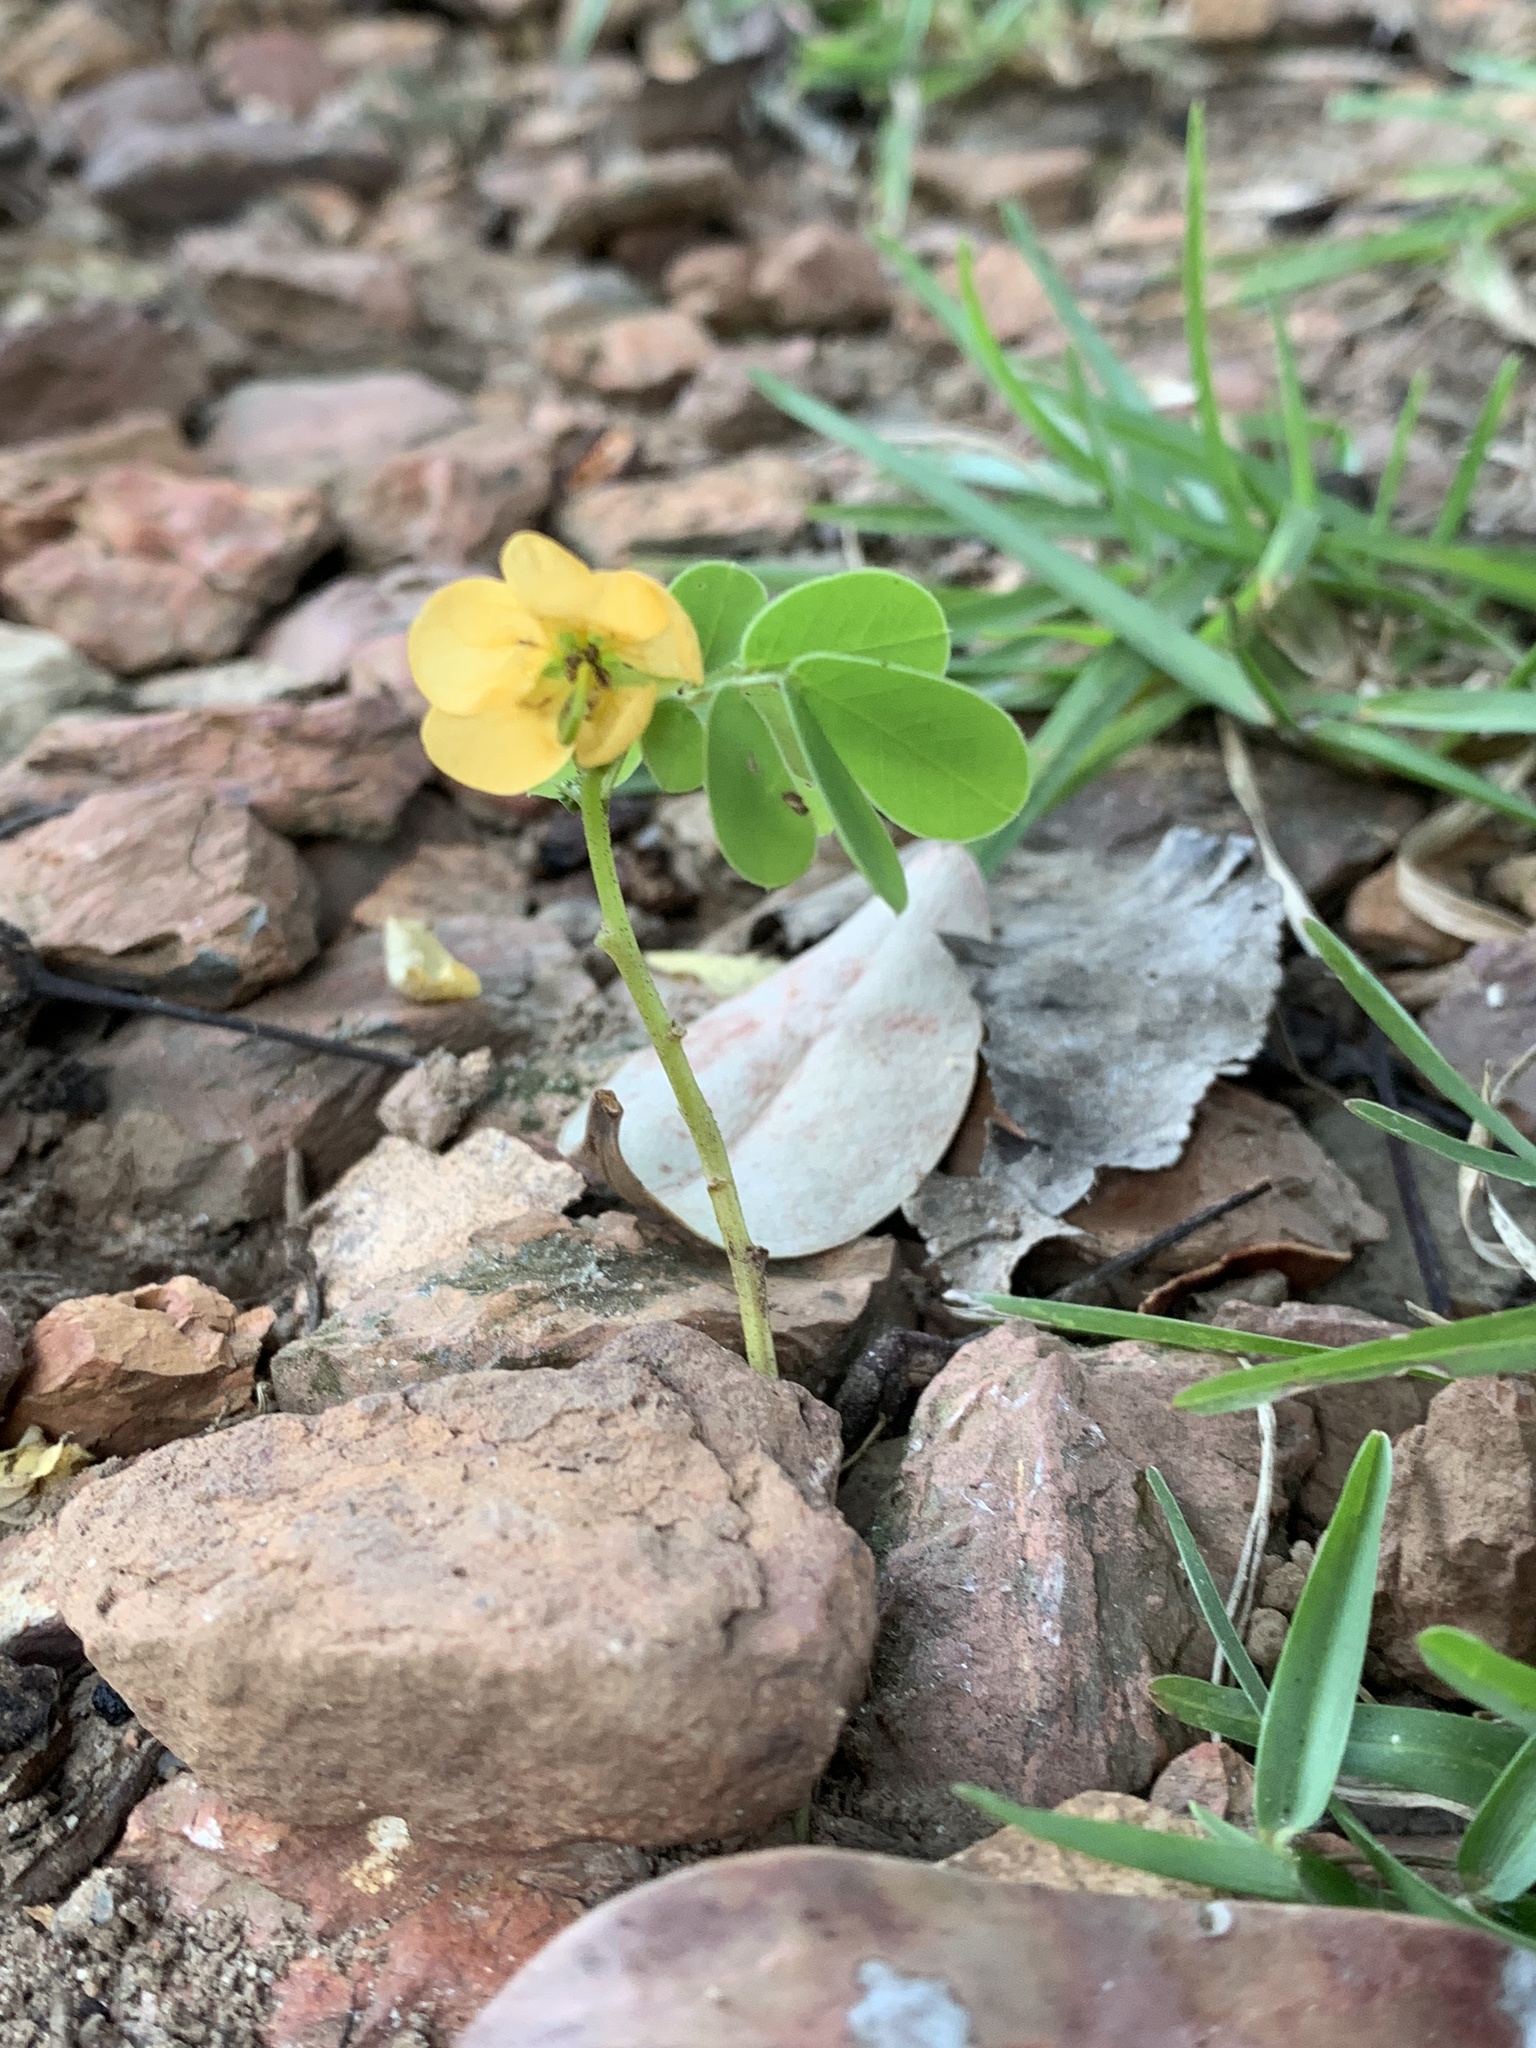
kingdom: Plantae
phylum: Tracheophyta
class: Magnoliopsida
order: Fabales
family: Fabaceae
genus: Senna
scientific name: Senna obtusifolia
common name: Java-bean
